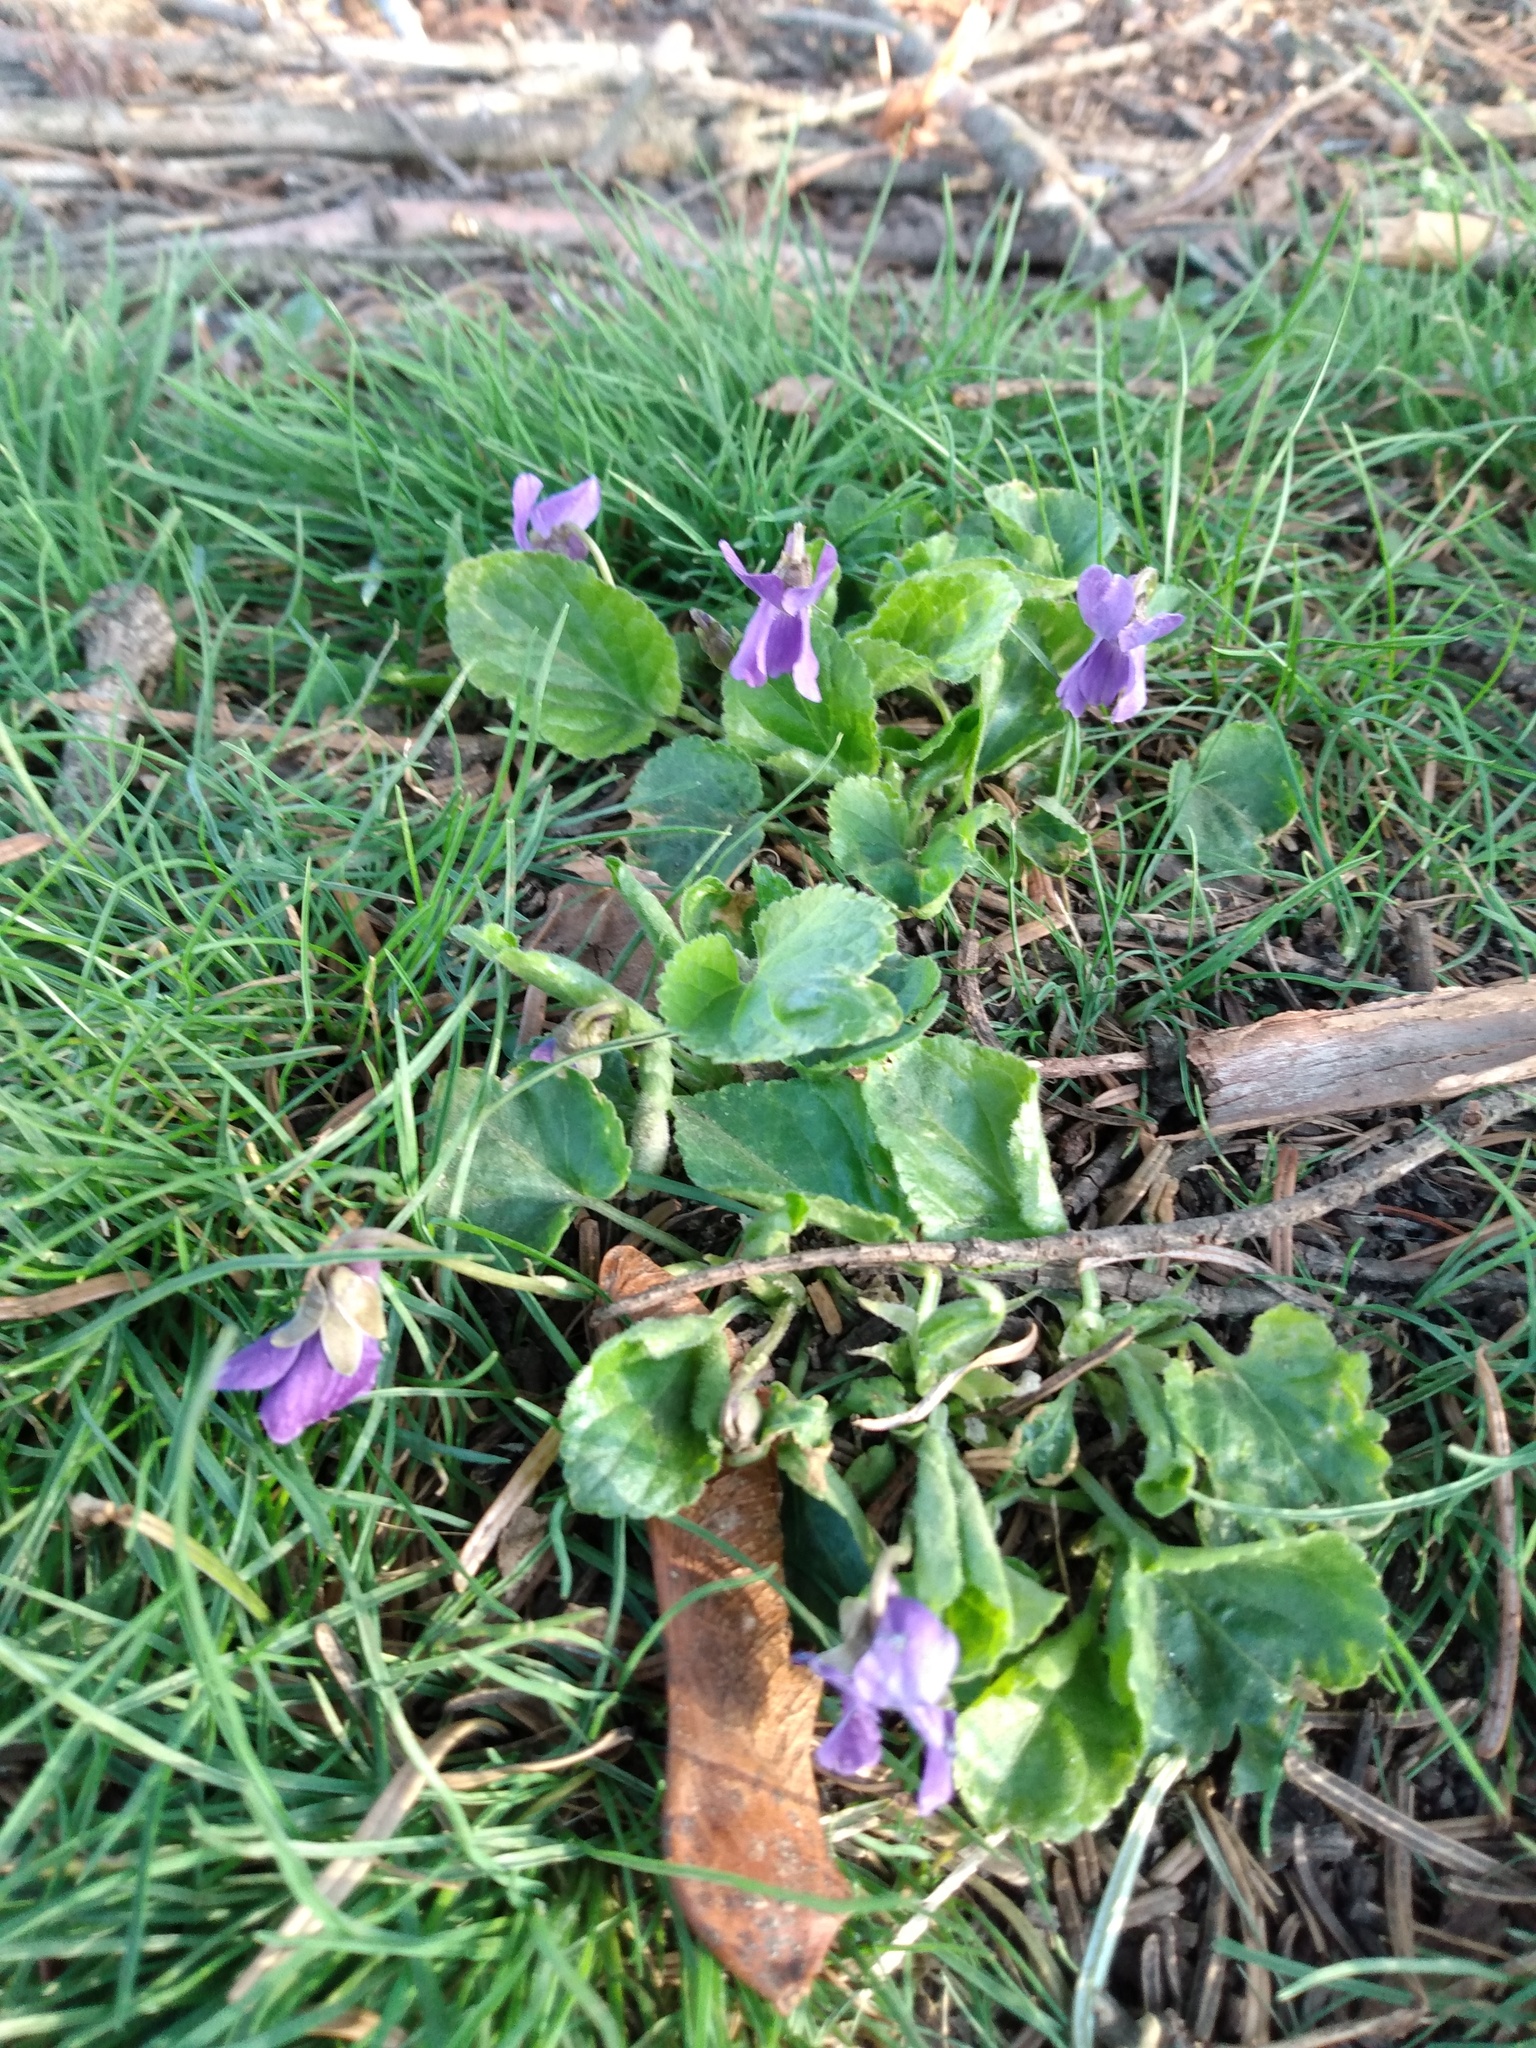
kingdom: Plantae
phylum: Tracheophyta
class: Magnoliopsida
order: Malpighiales
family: Violaceae
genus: Viola
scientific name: Viola odorata
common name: Sweet violet
